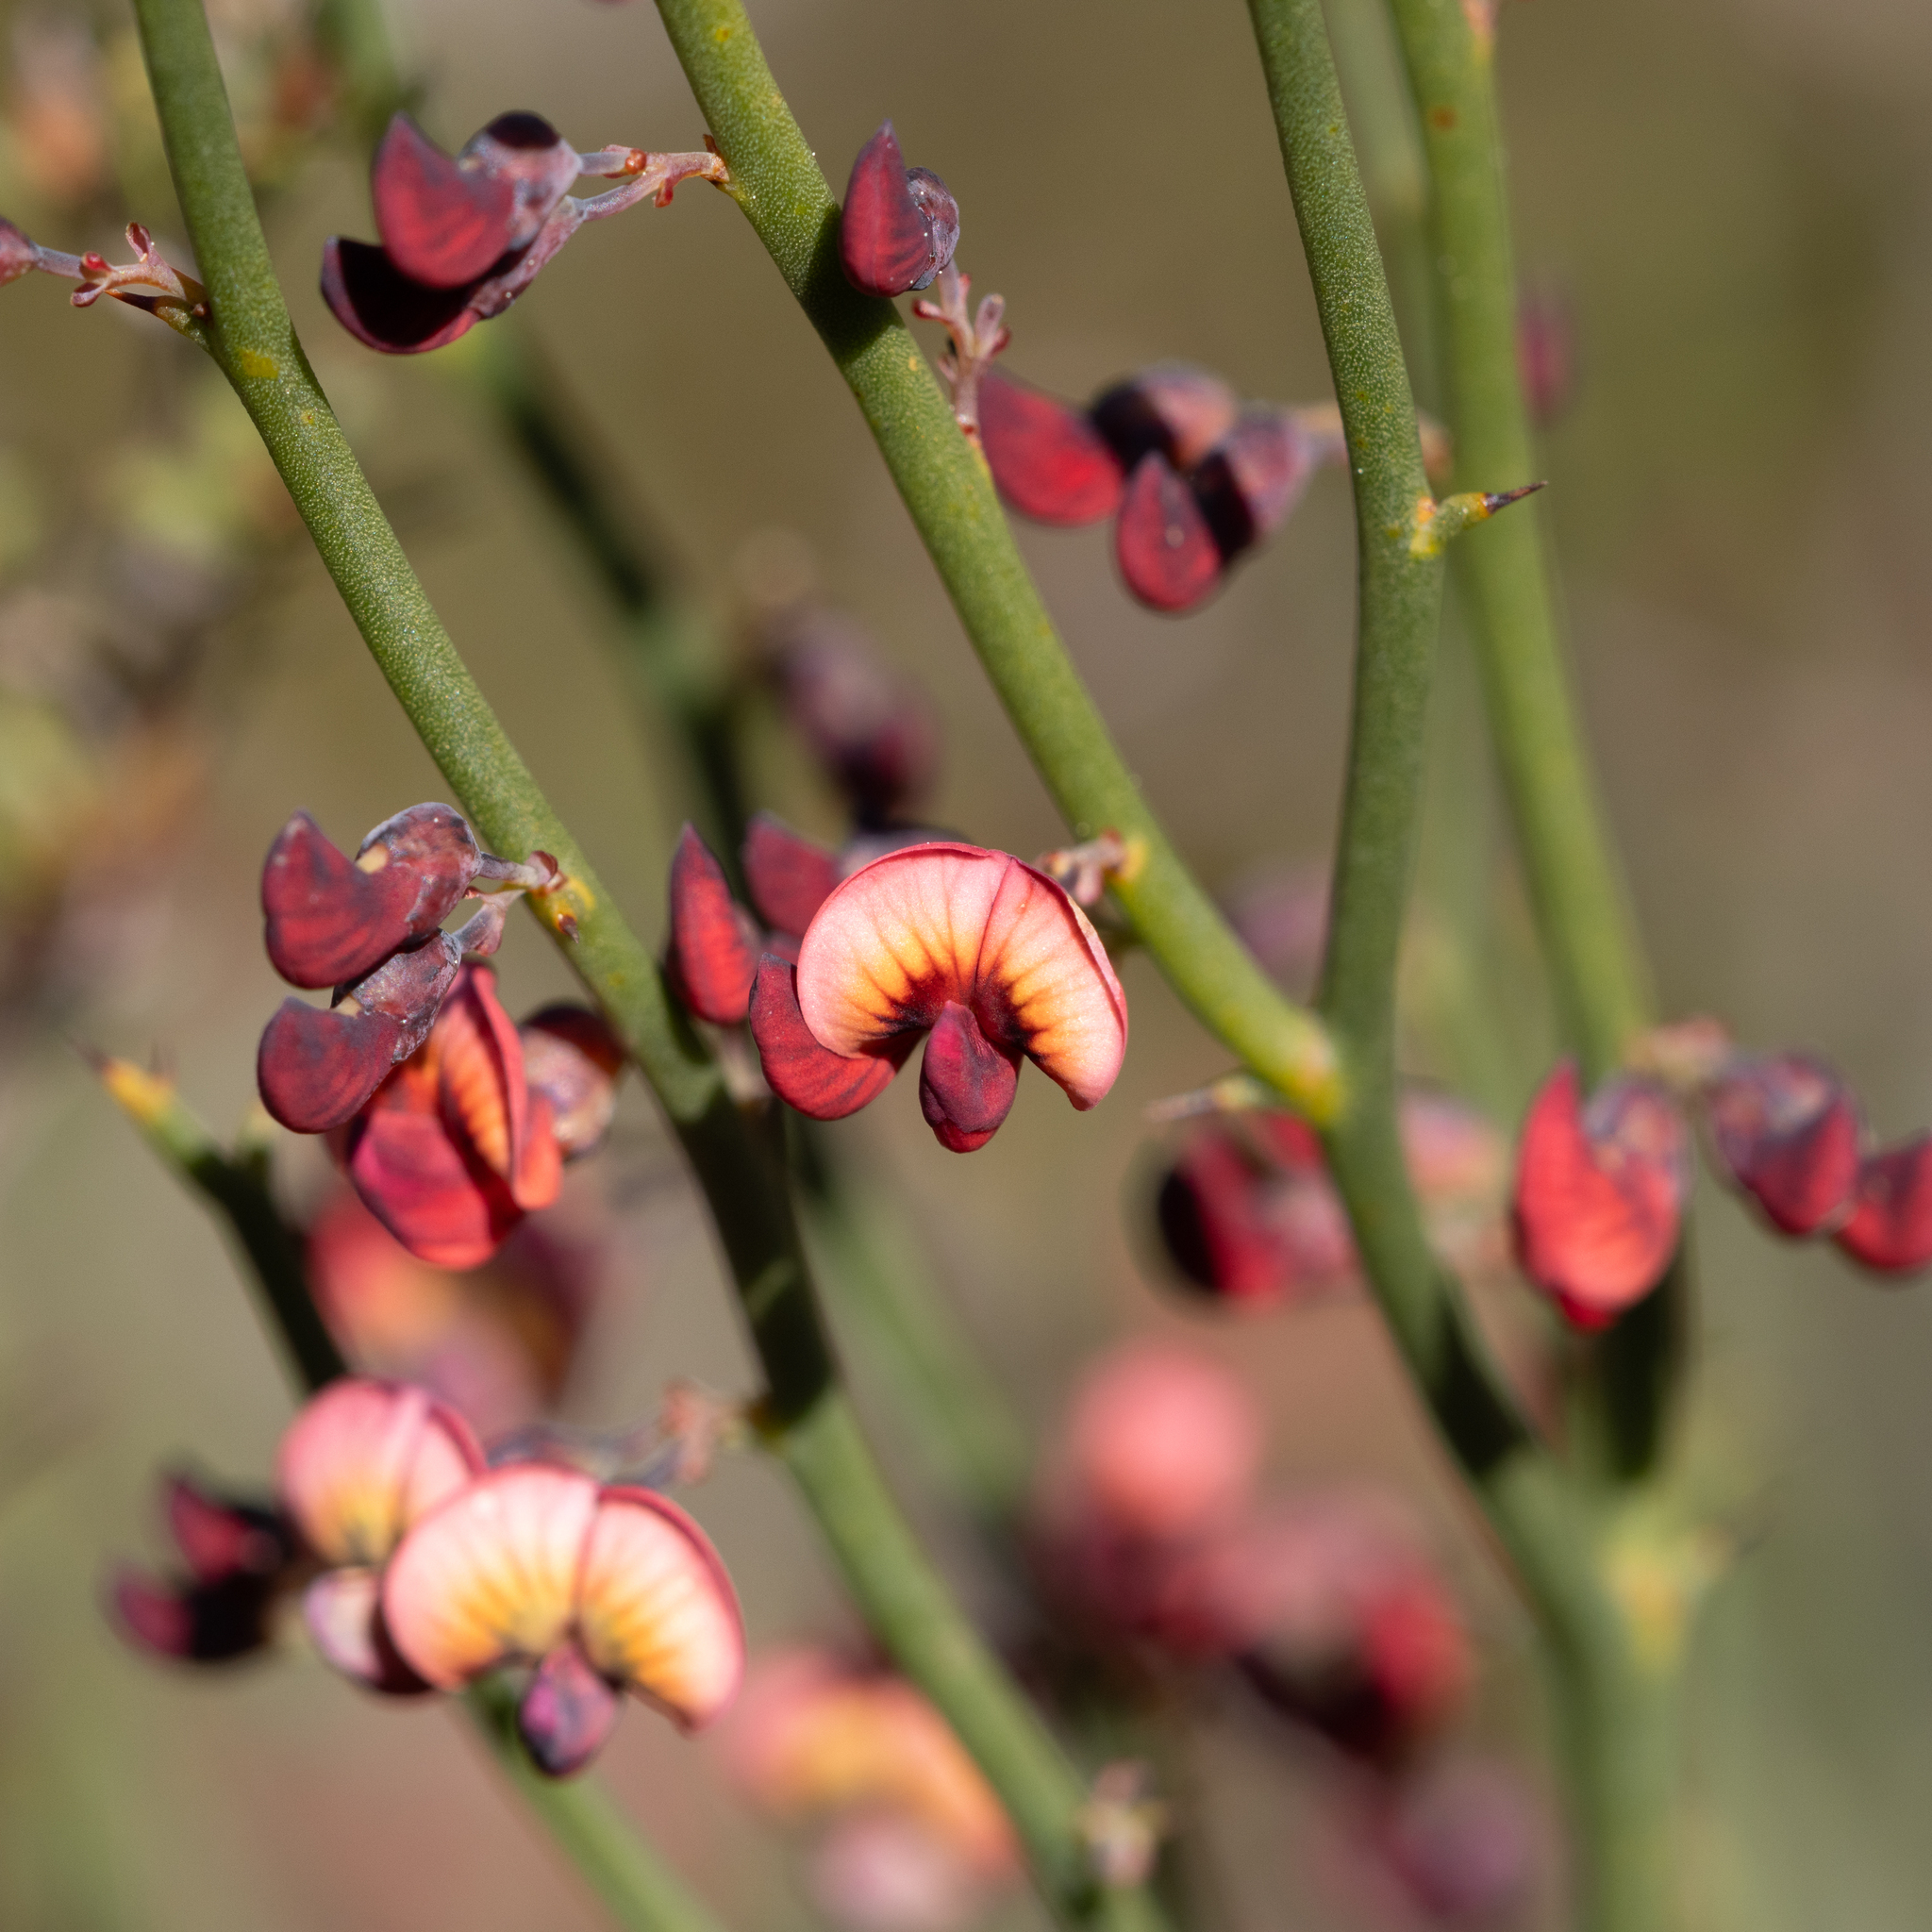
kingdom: Plantae
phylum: Tracheophyta
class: Magnoliopsida
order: Fabales
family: Fabaceae
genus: Daviesia
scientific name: Daviesia brevifolia
